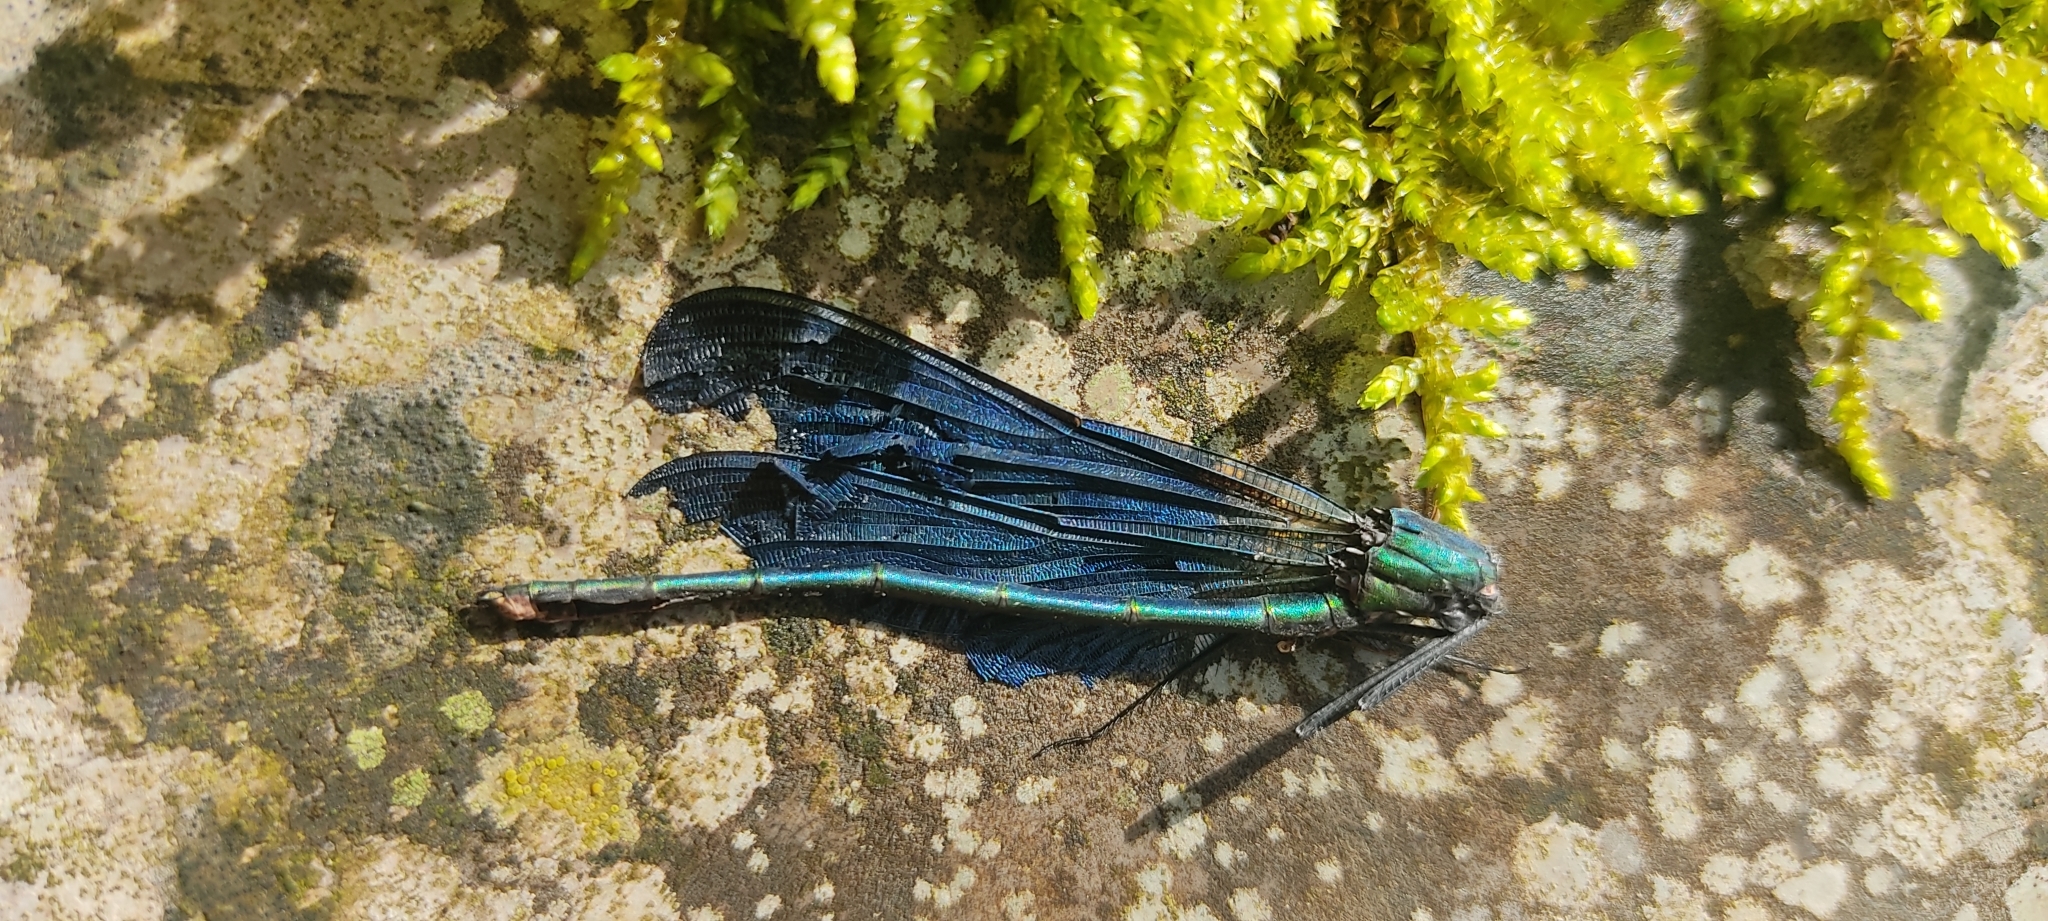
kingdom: Animalia
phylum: Arthropoda
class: Insecta
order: Odonata
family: Calopterygidae
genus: Calopteryx
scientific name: Calopteryx virgo
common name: Beautiful demoiselle
